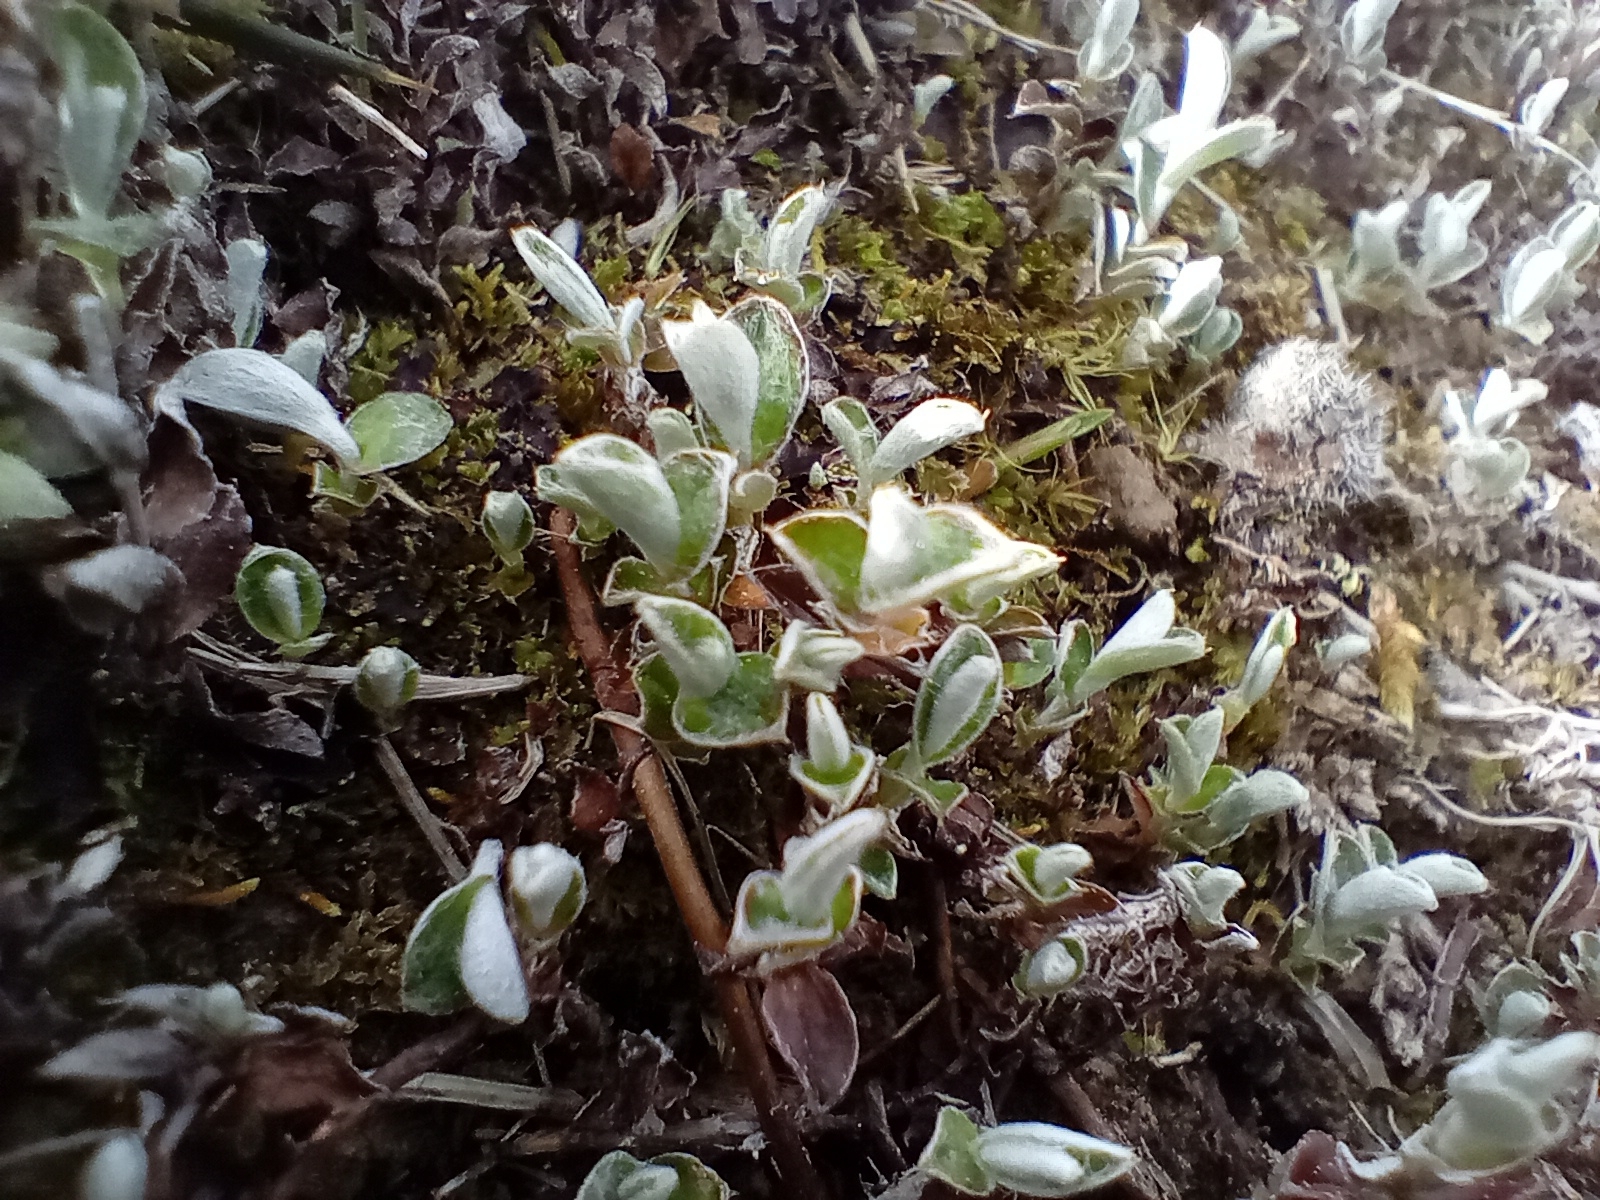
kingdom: Plantae
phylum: Tracheophyta
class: Magnoliopsida
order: Asterales
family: Asteraceae
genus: Helichrysum
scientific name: Helichrysum filicaule
